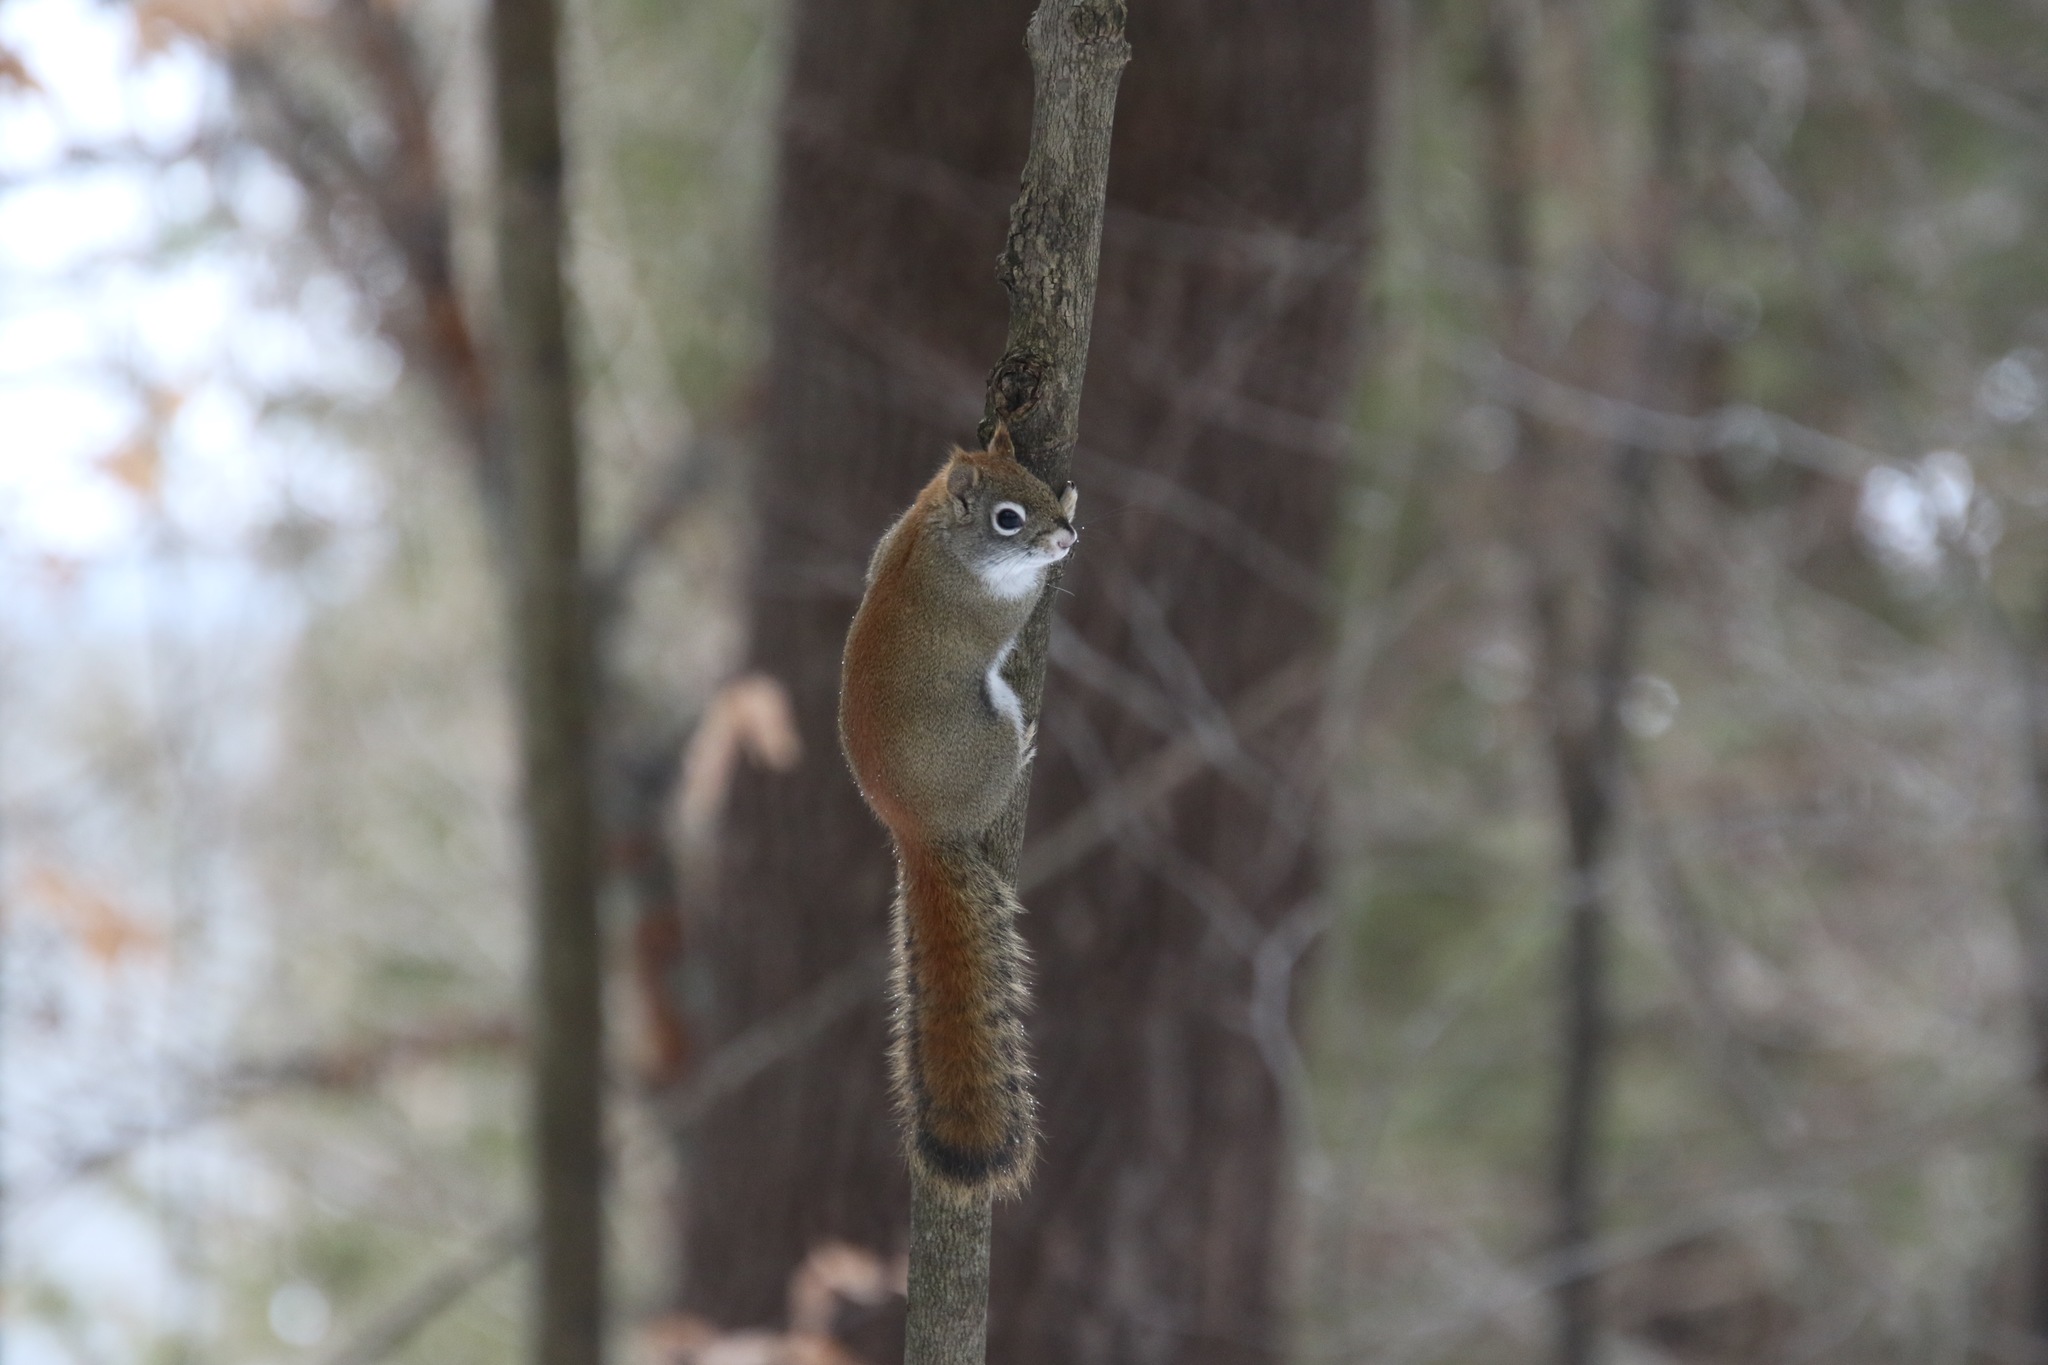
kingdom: Animalia
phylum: Chordata
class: Mammalia
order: Rodentia
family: Sciuridae
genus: Tamiasciurus
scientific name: Tamiasciurus hudsonicus
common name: Red squirrel
